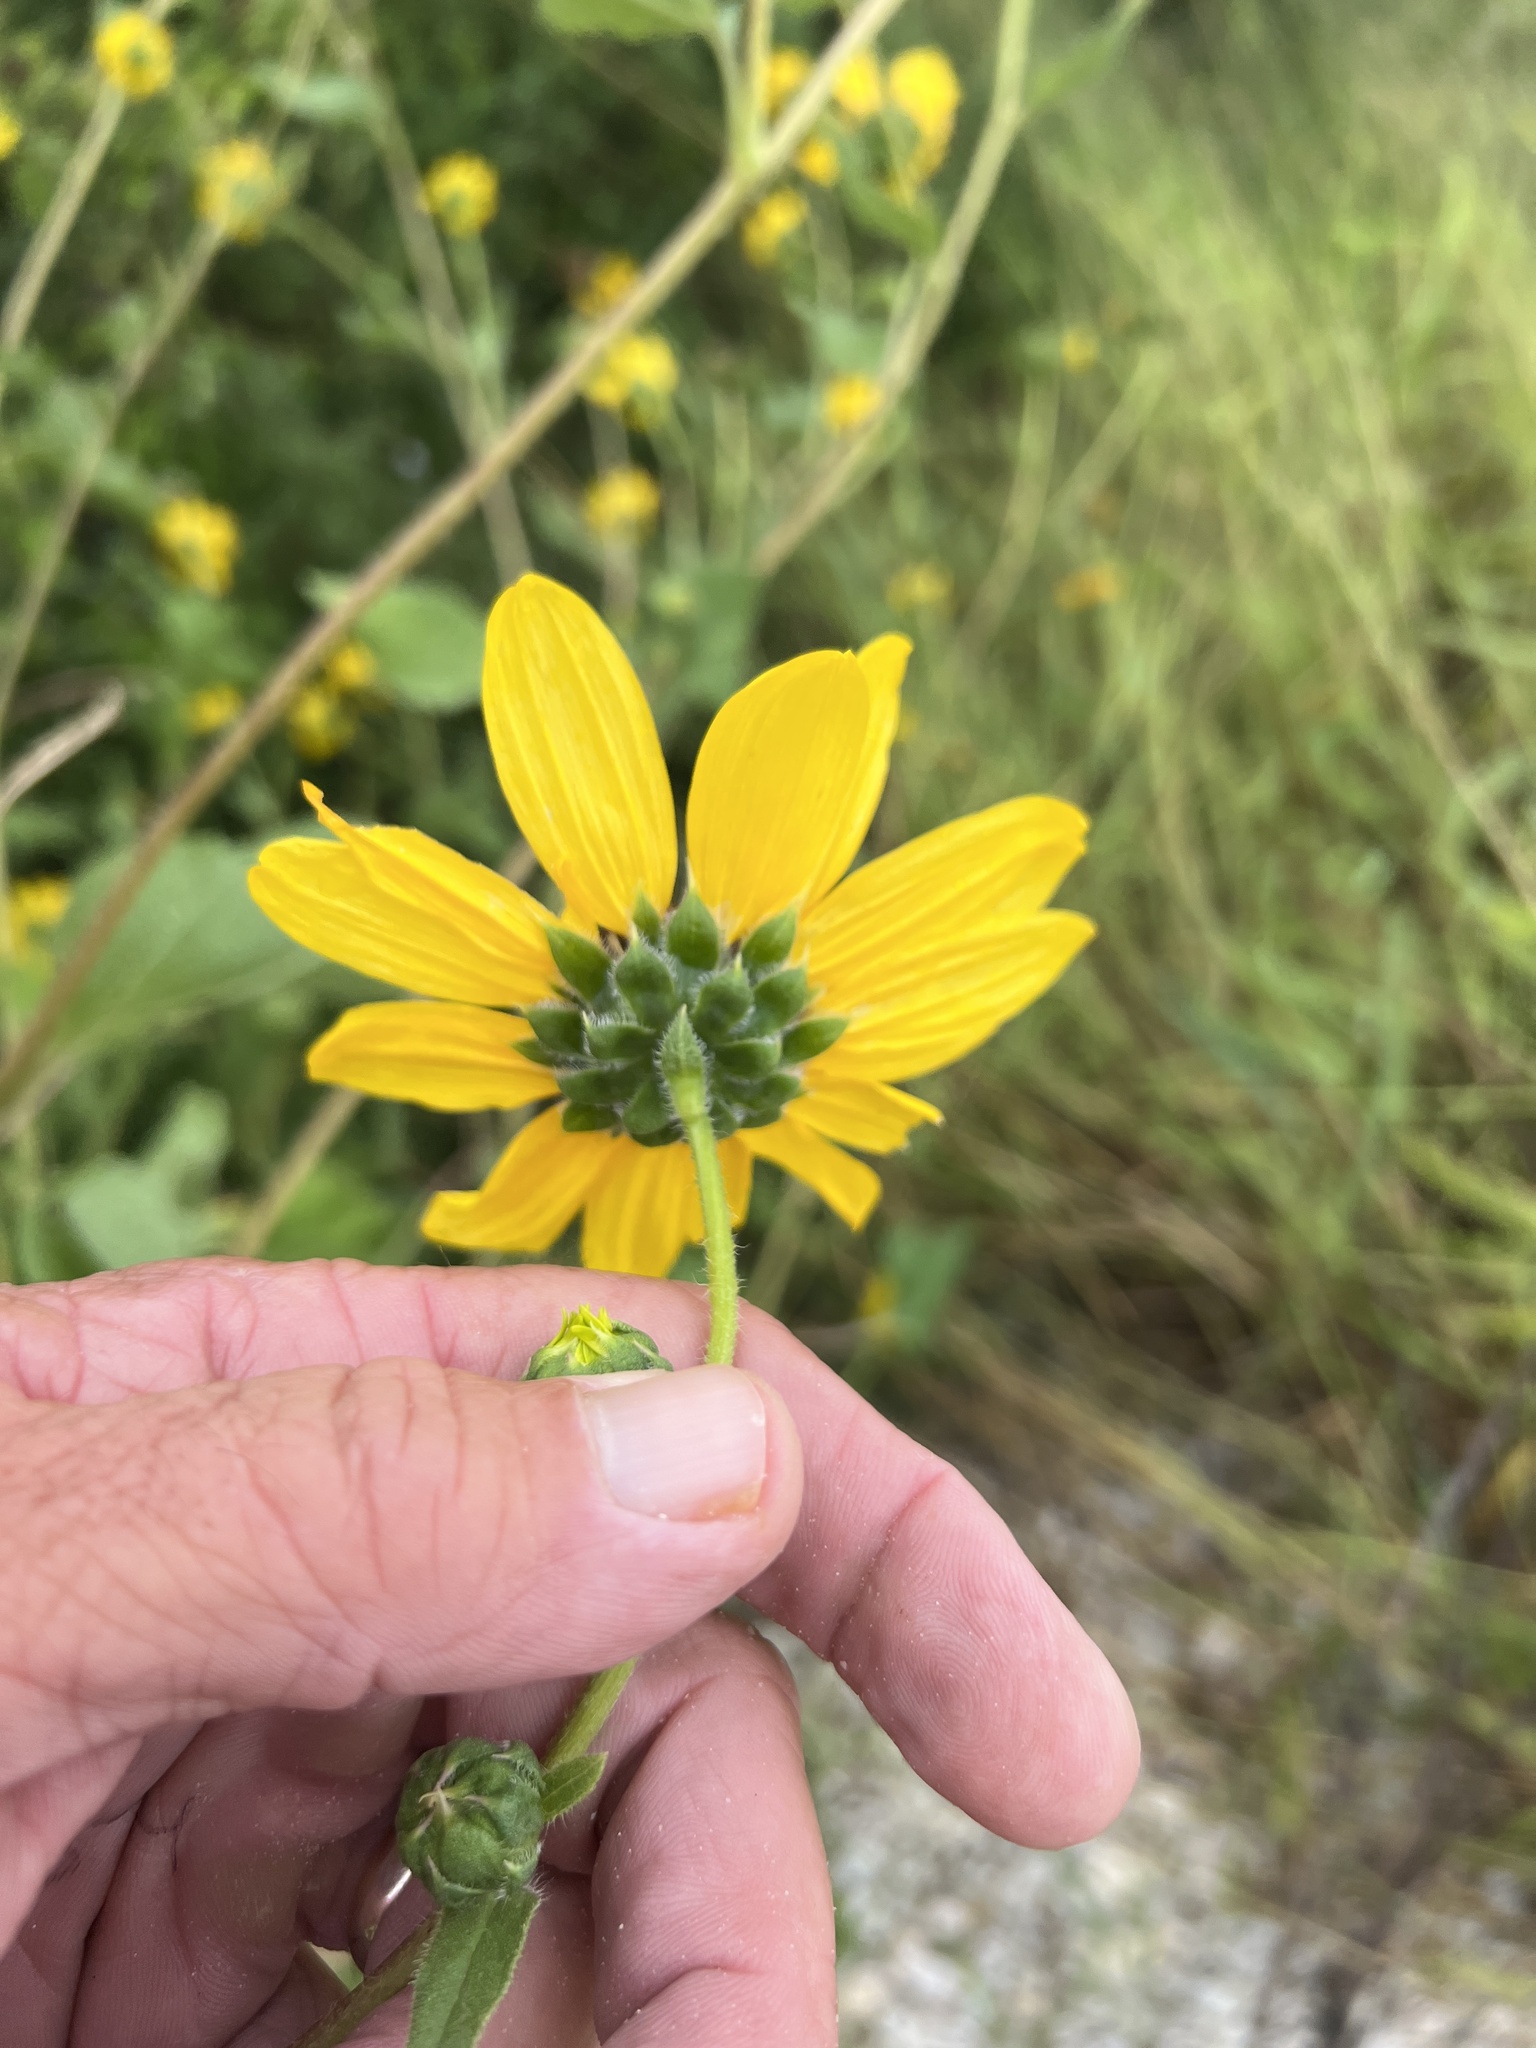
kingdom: Plantae
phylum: Tracheophyta
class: Magnoliopsida
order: Asterales
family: Asteraceae
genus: Helianthus
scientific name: Helianthus annuus
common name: Sunflower
